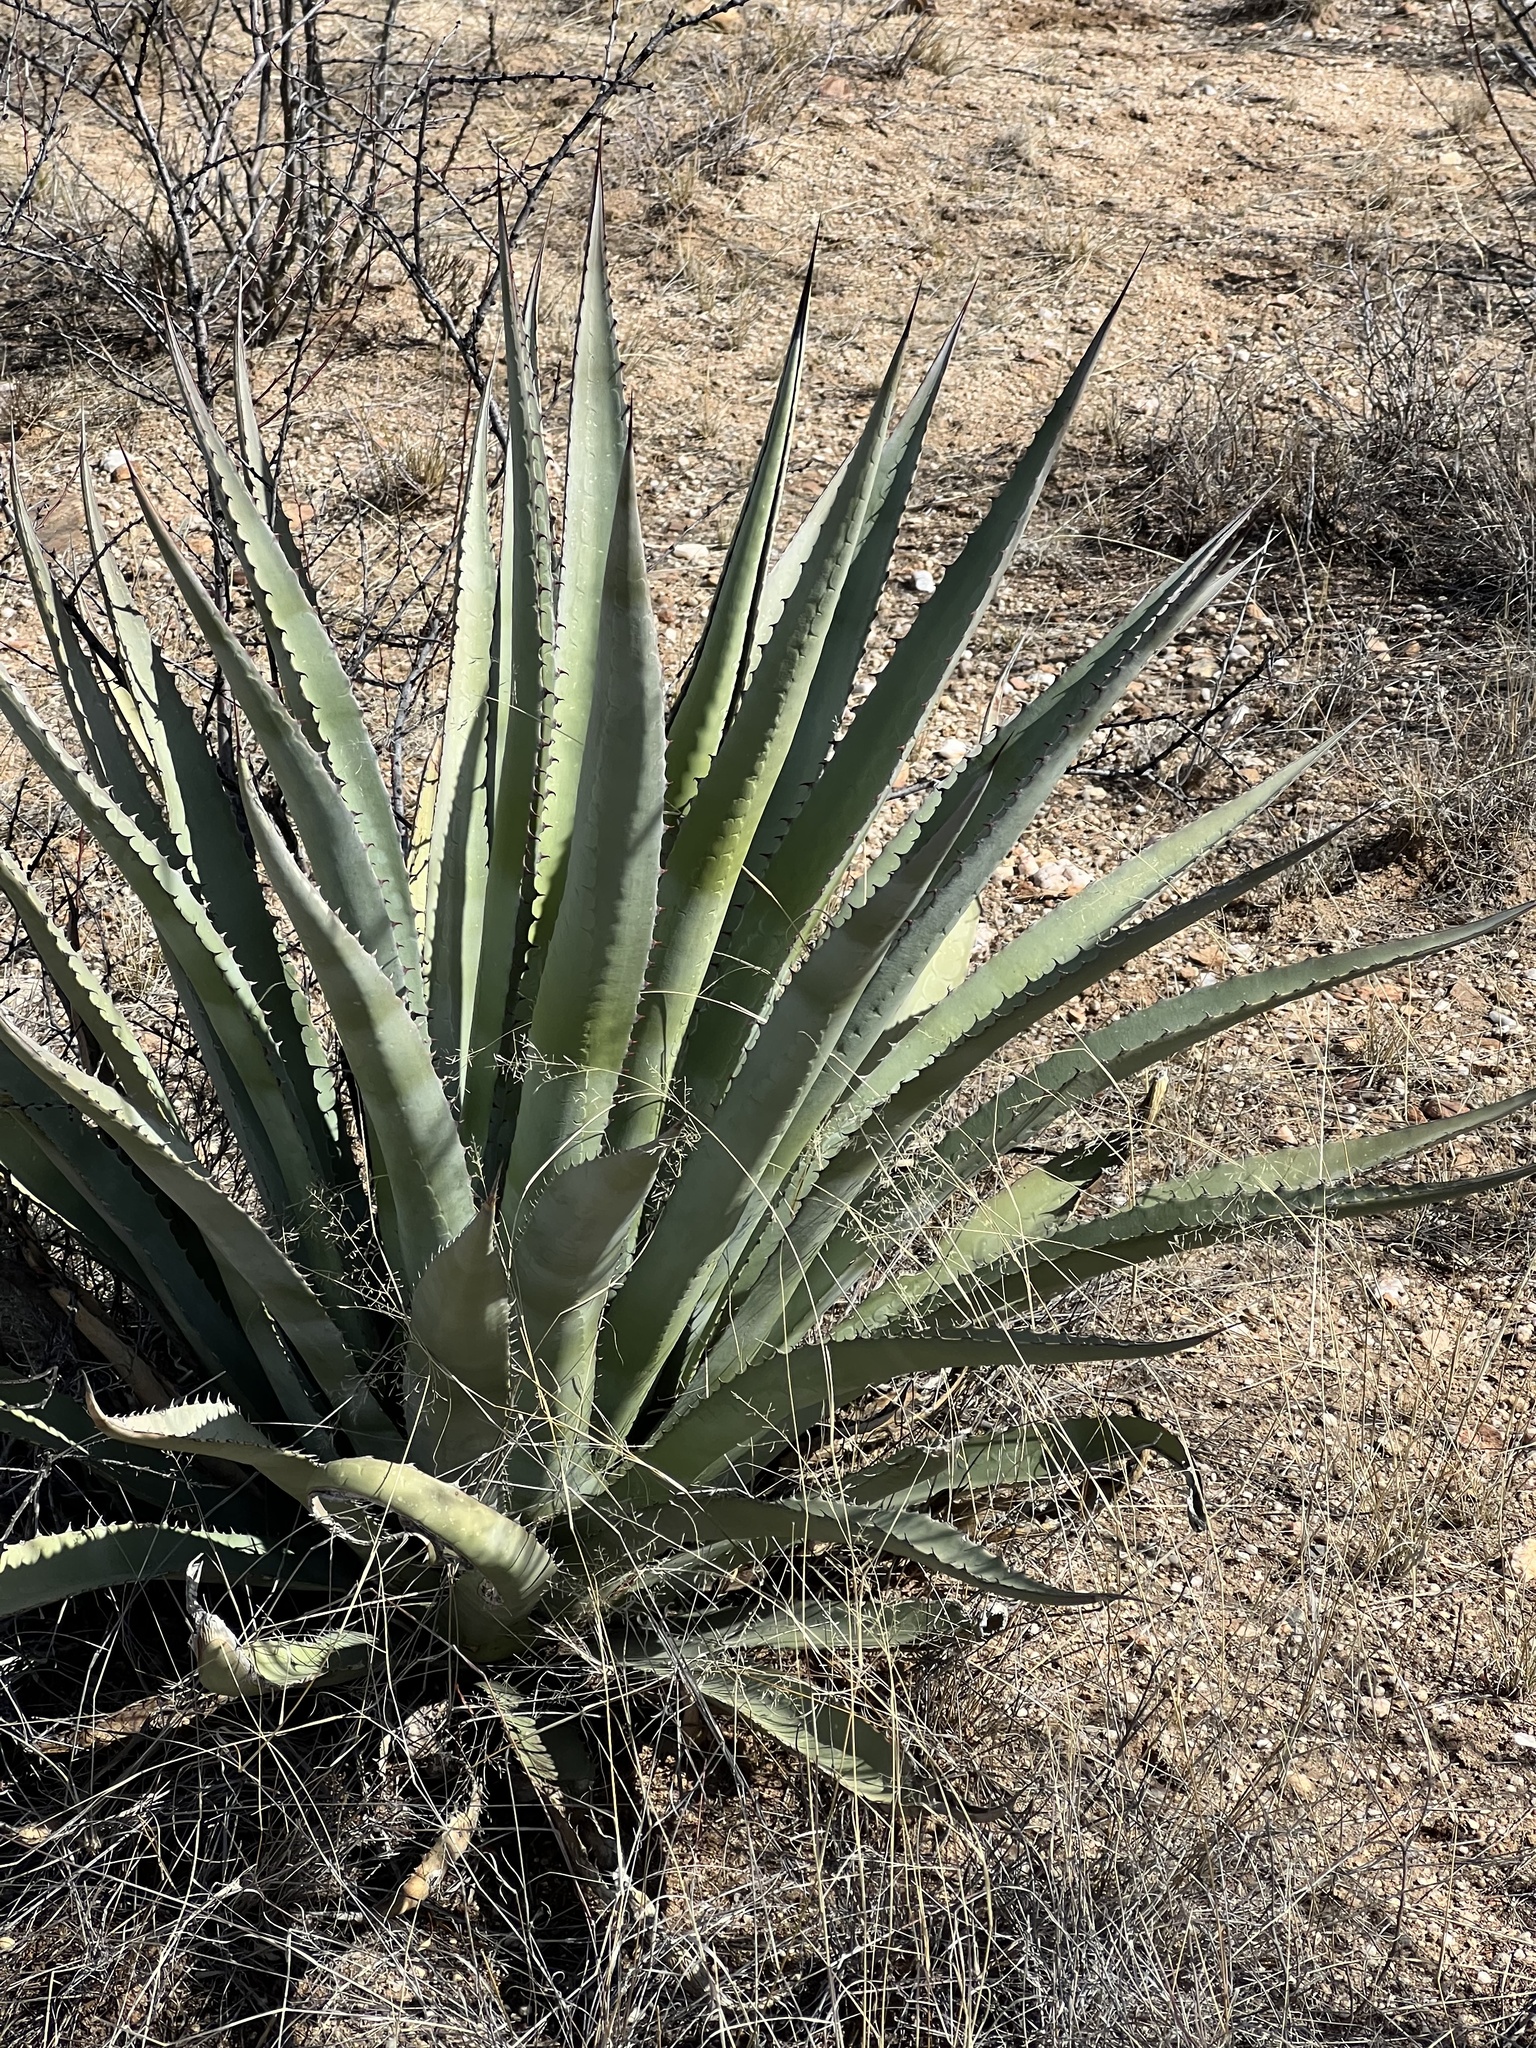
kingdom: Plantae
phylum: Tracheophyta
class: Liliopsida
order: Asparagales
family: Asparagaceae
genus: Agave
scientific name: Agave palmeri
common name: Palmer agave
